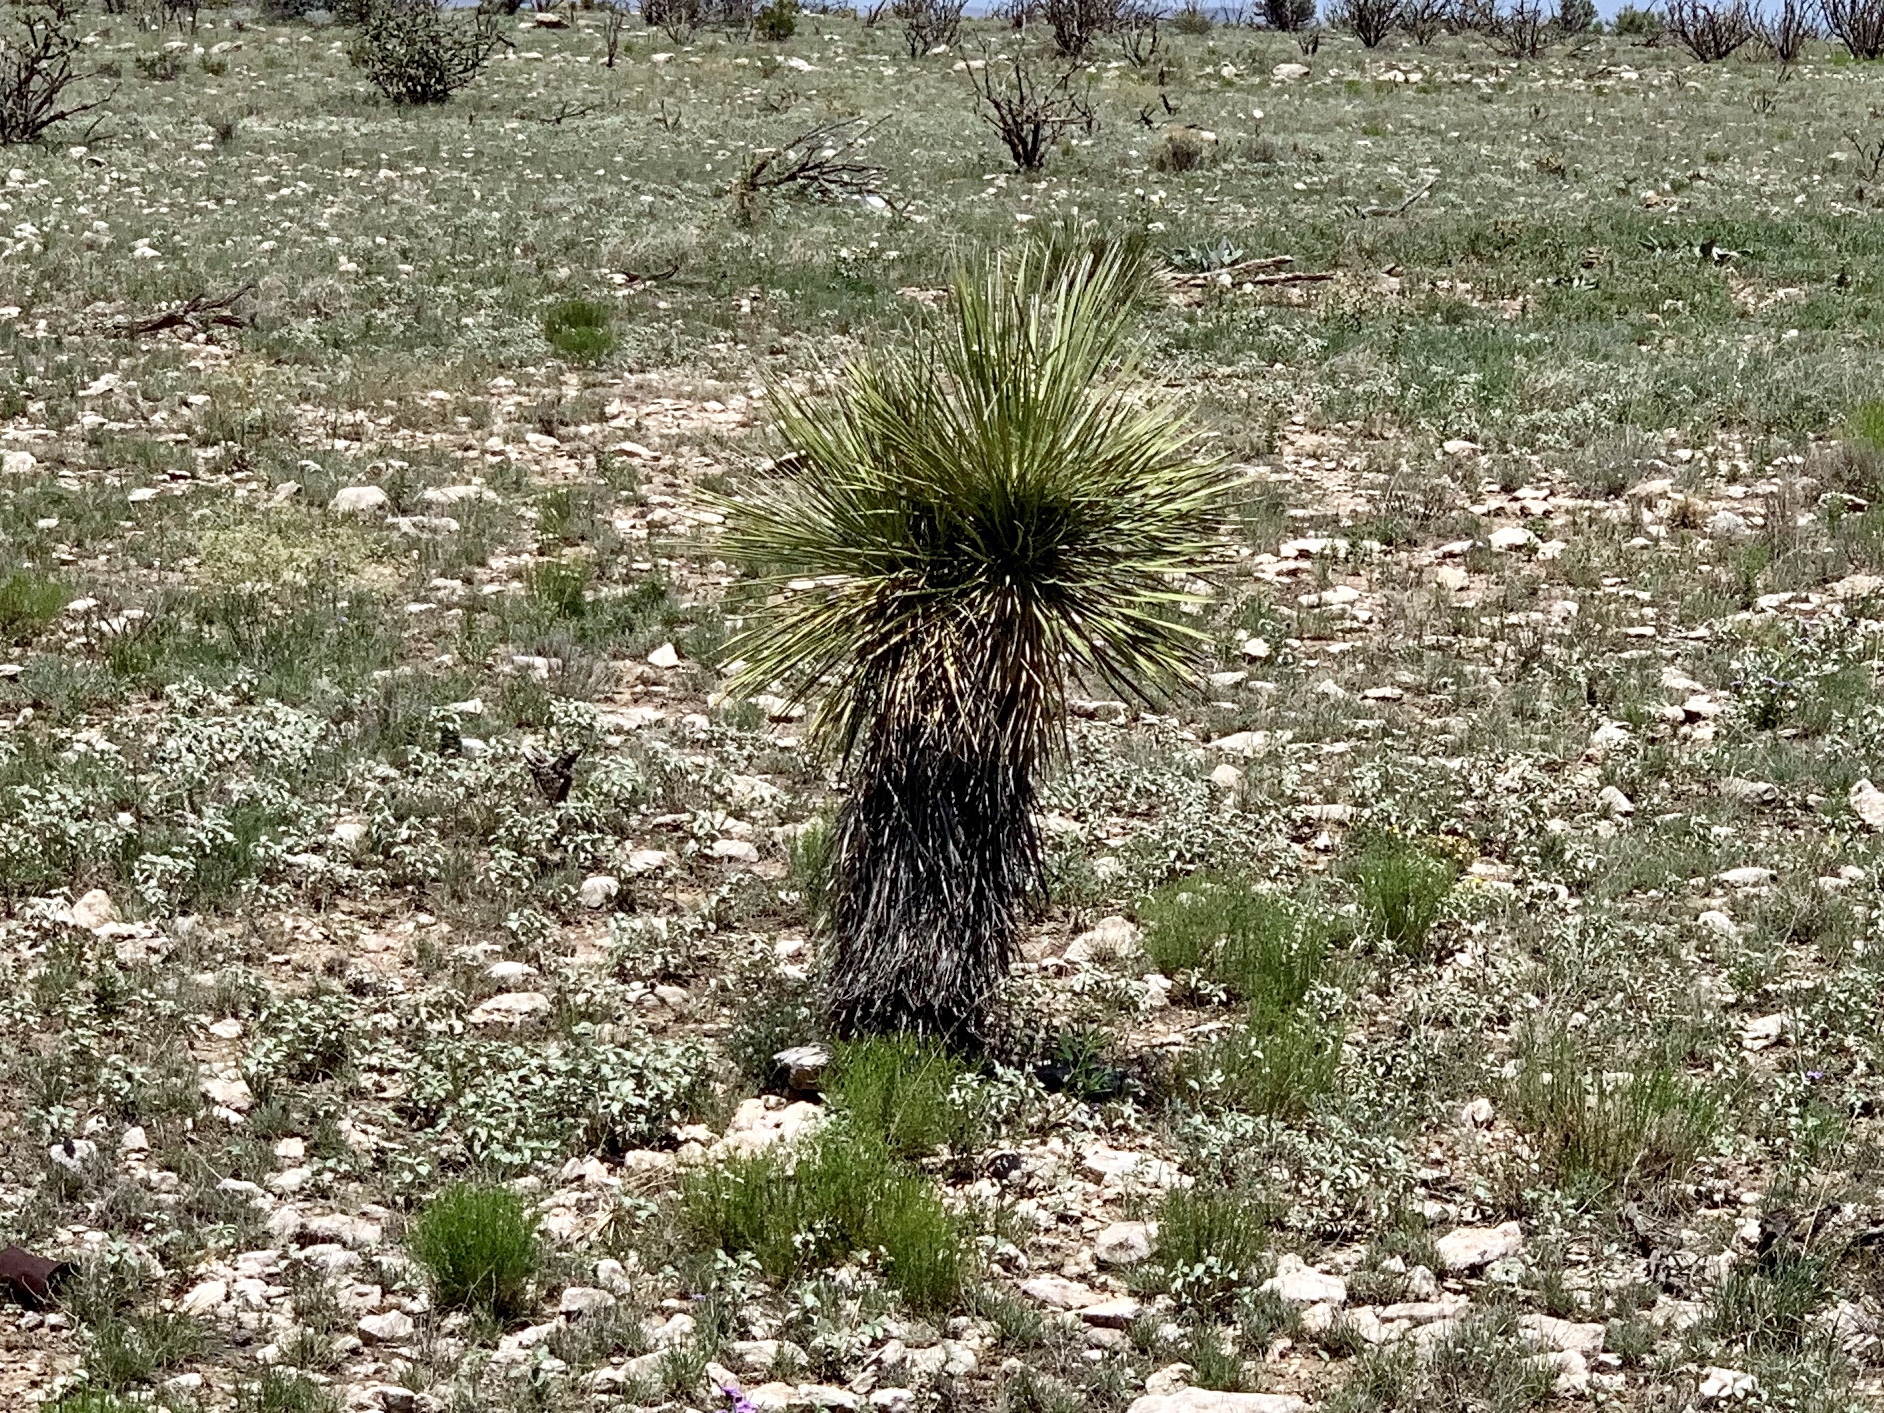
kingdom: Plantae
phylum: Tracheophyta
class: Liliopsida
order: Asparagales
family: Asparagaceae
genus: Yucca
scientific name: Yucca elata
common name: Palmella
